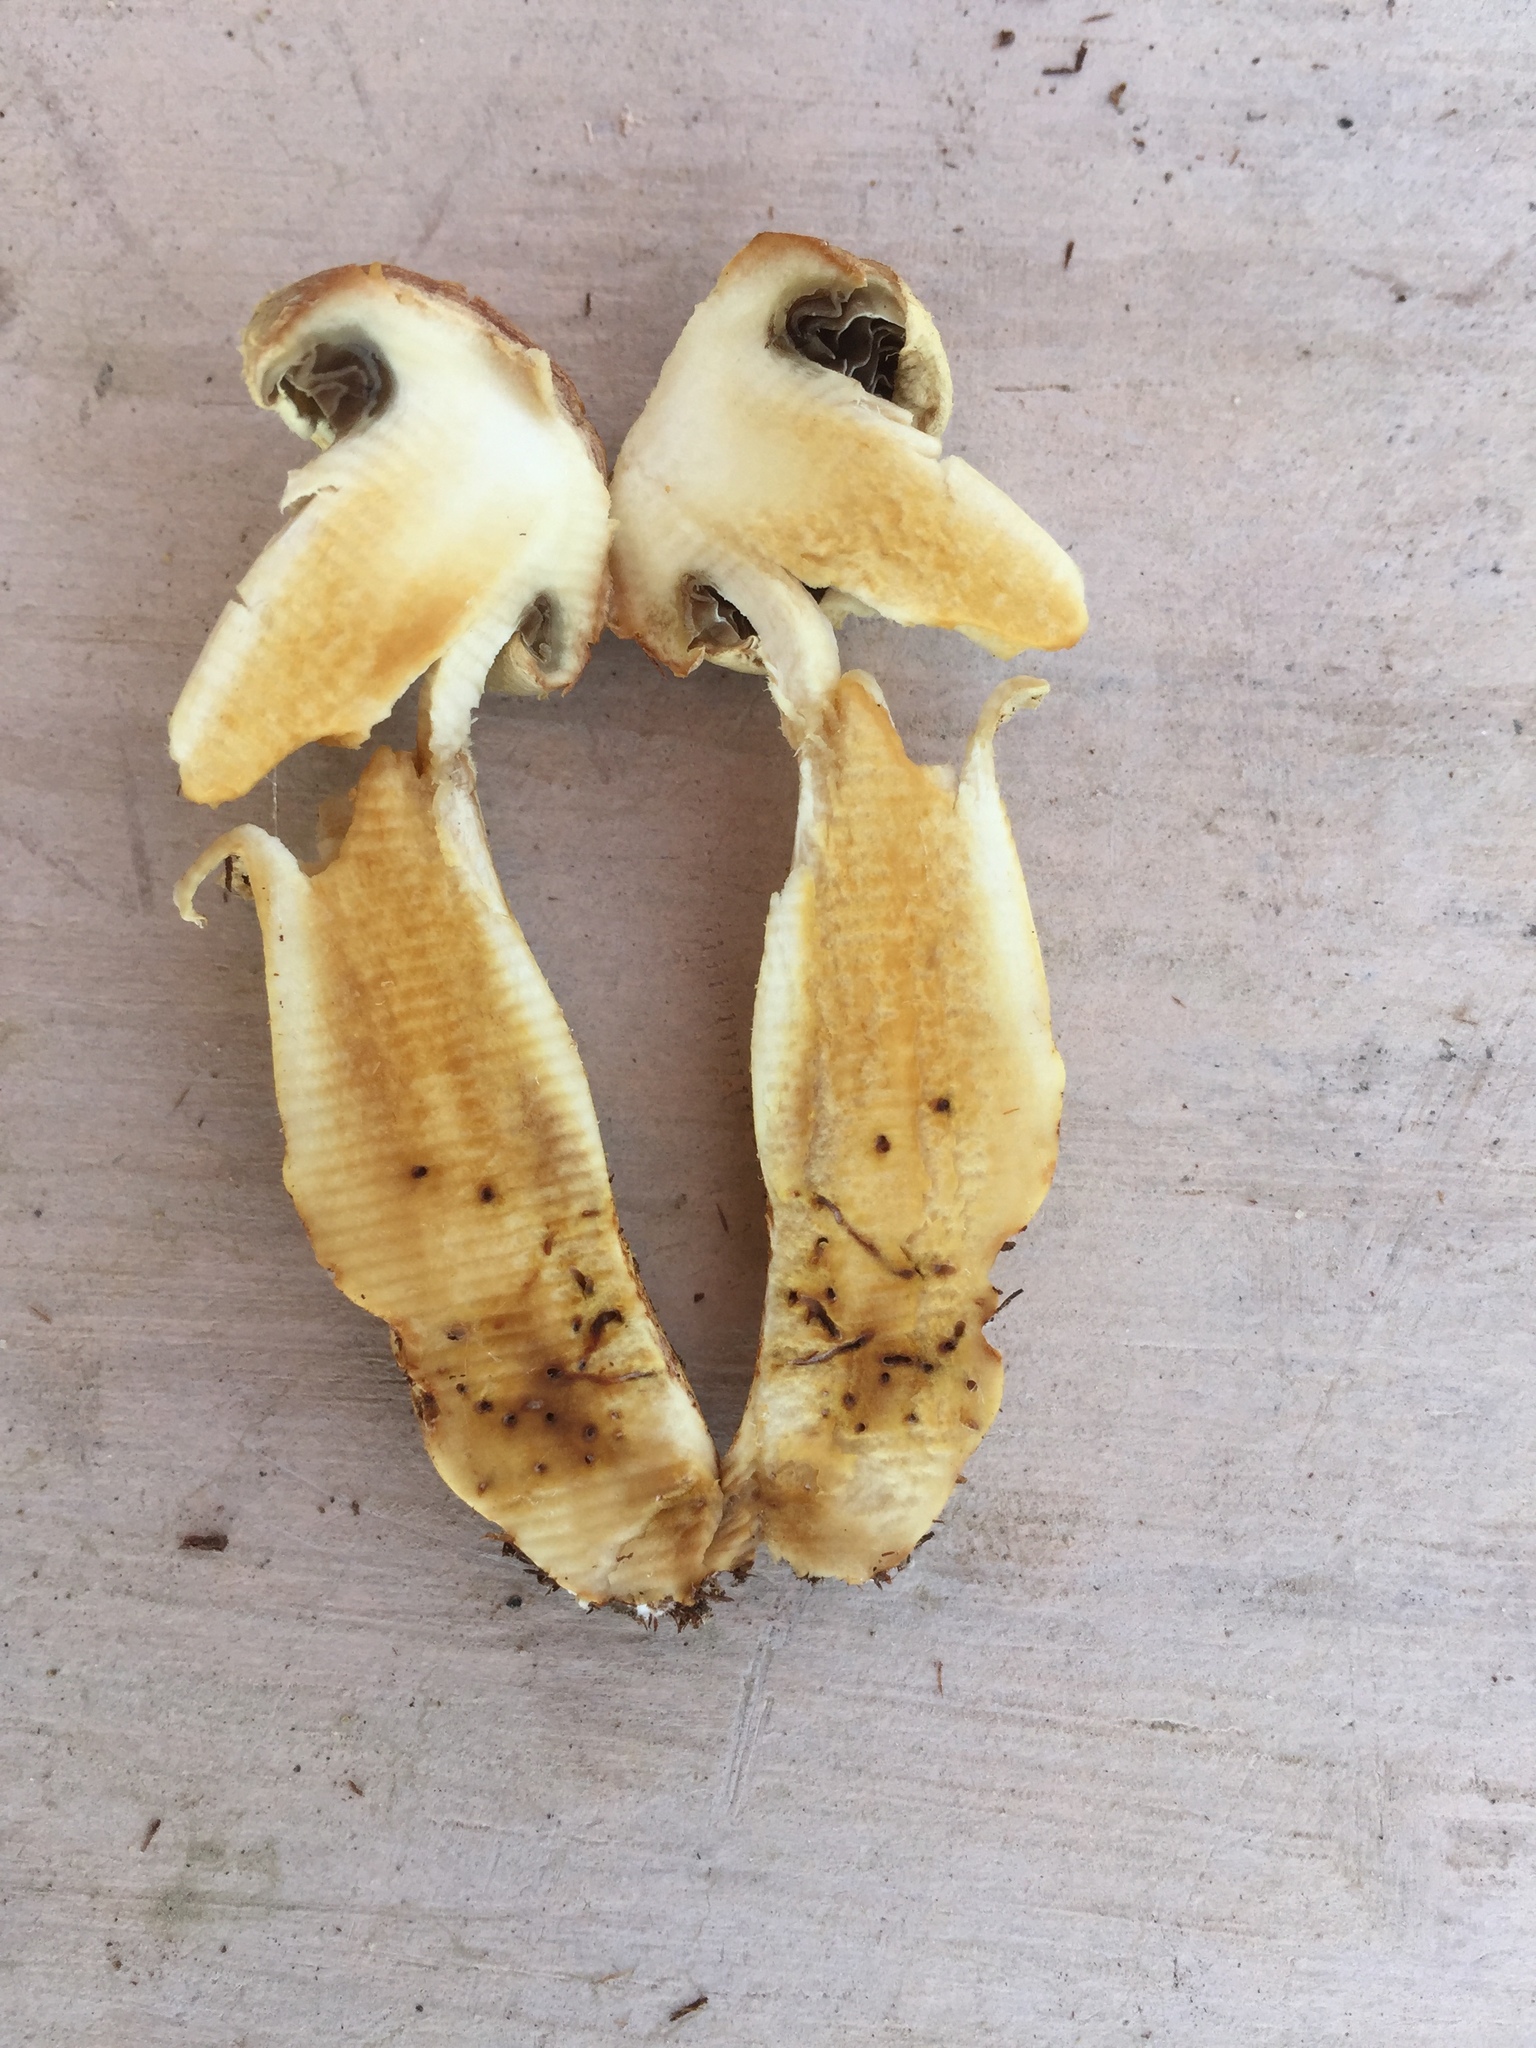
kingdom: Fungi
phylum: Basidiomycota
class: Agaricomycetes
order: Agaricales
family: Strophariaceae
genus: Leratiomyces
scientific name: Leratiomyces percevalii
